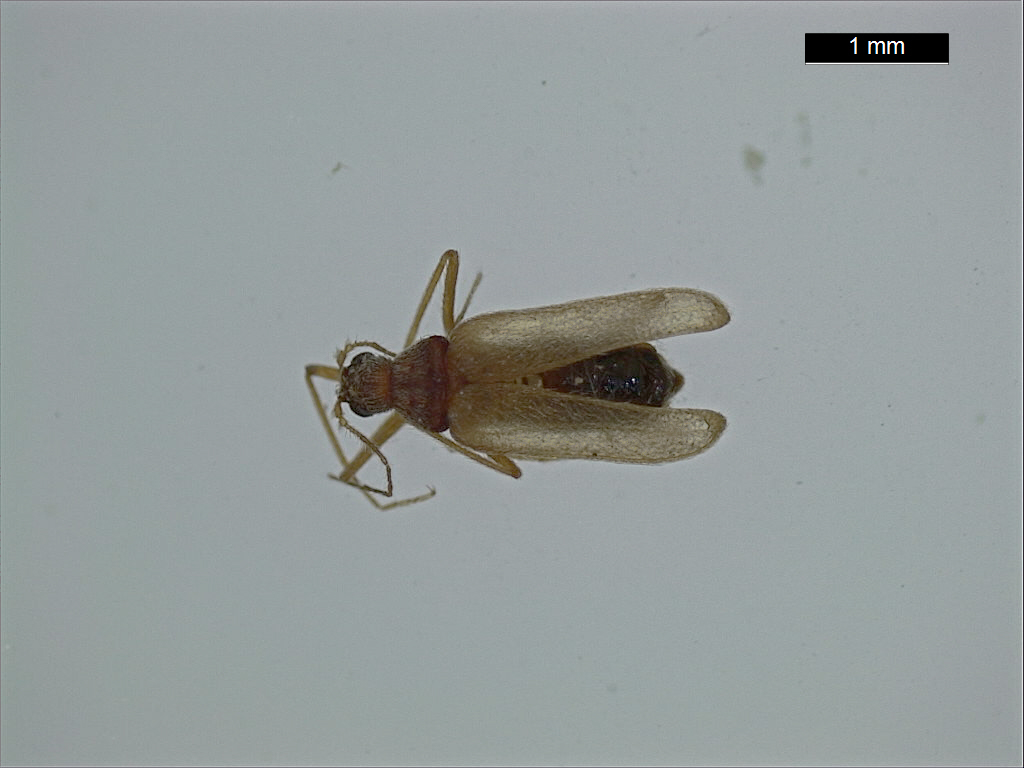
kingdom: Animalia
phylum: Arthropoda
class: Insecta
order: Coleoptera
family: Dermestidae
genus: Thylodrias
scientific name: Thylodrias contractus
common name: Odd beetle
